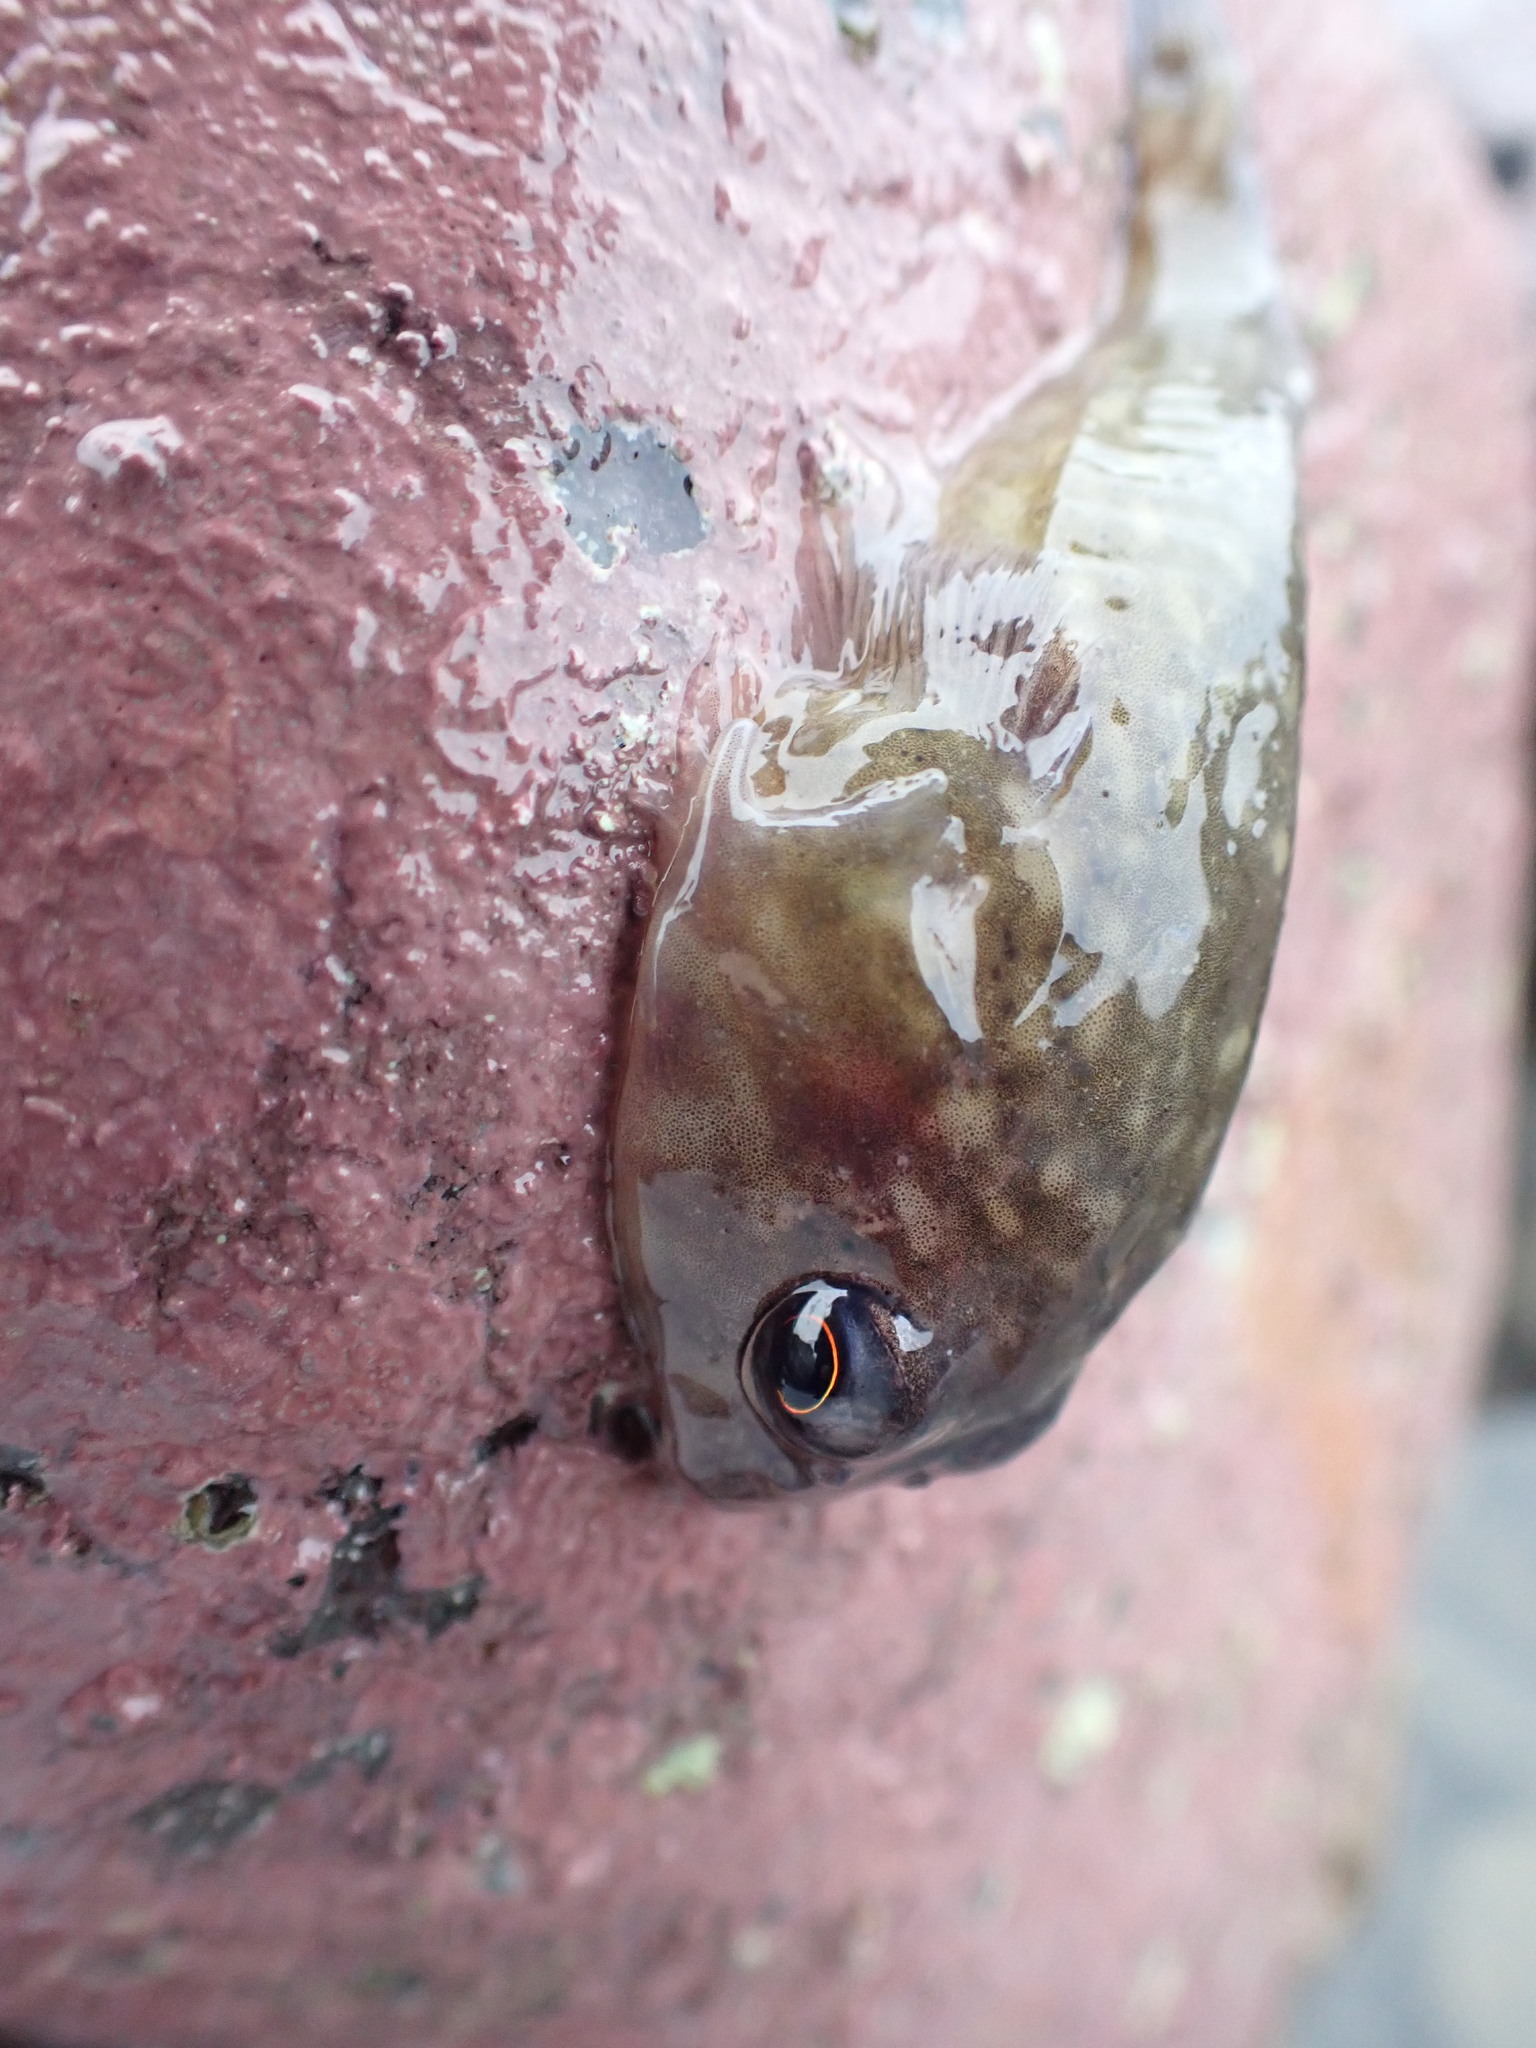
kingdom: Animalia
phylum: Chordata
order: Gobiesociformes
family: Gobiesocidae
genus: Diplocrepis
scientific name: Diplocrepis puniceus
